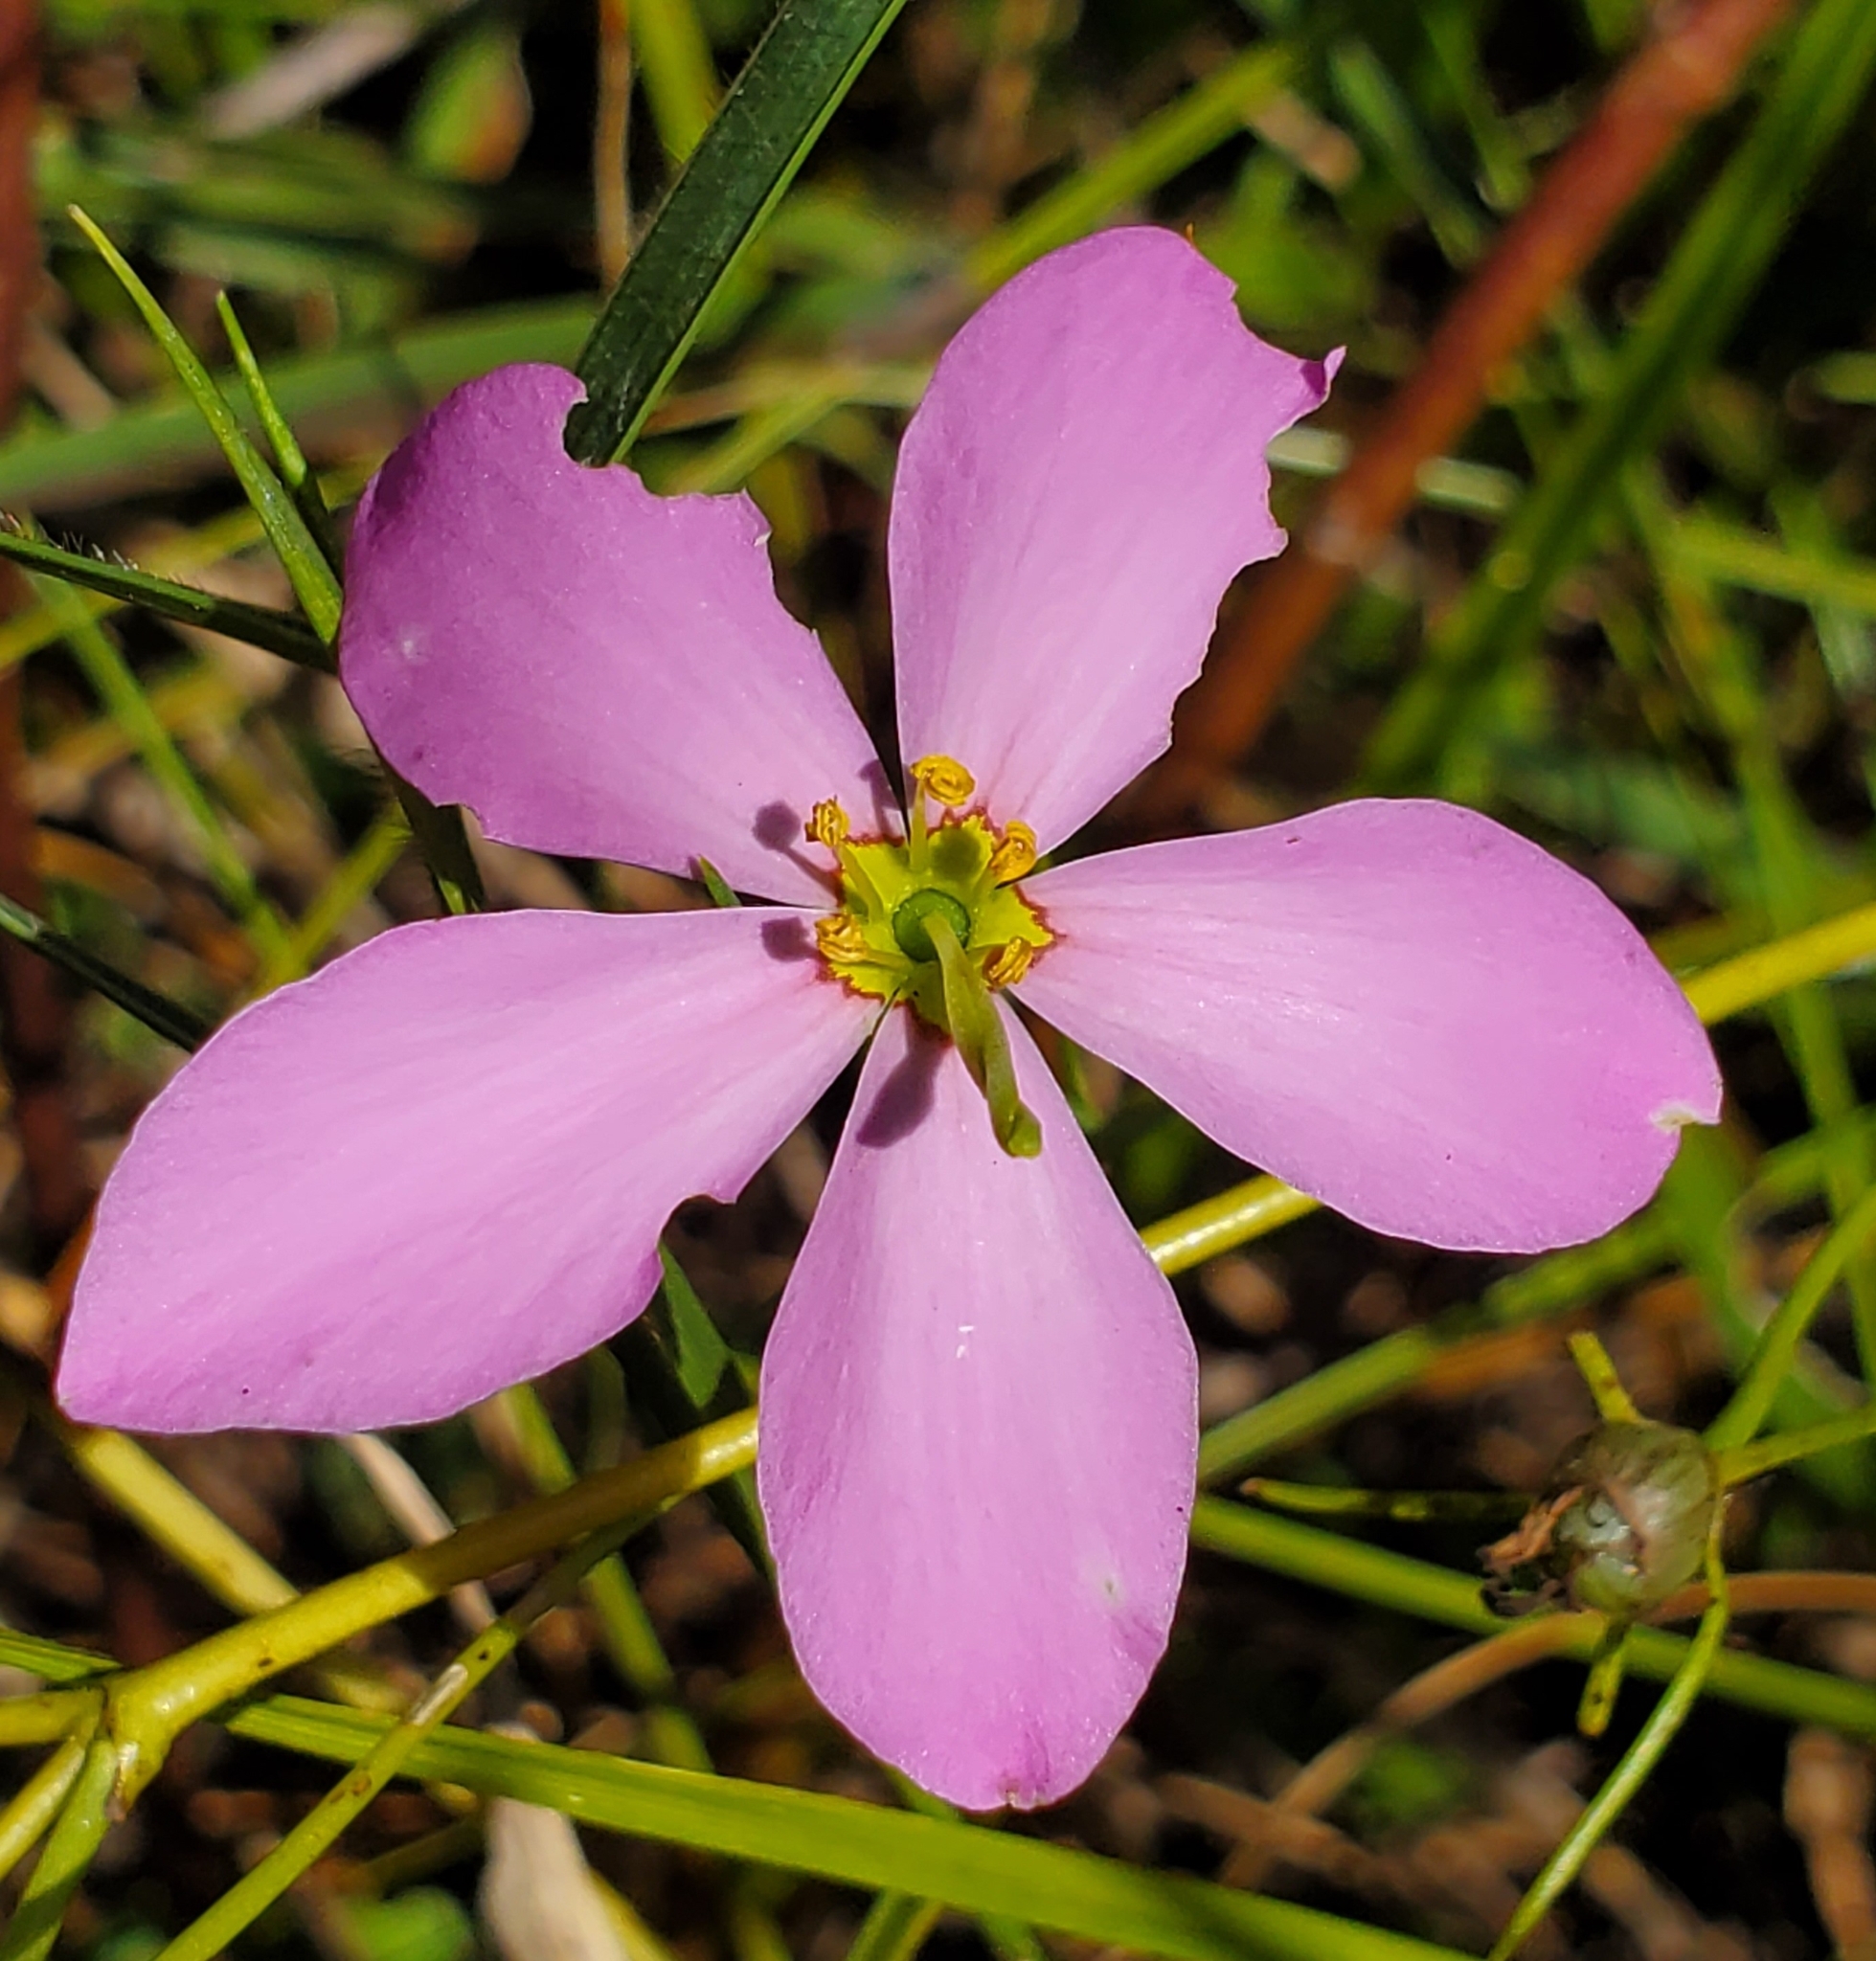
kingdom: Plantae
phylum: Tracheophyta
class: Magnoliopsida
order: Gentianales
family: Gentianaceae
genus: Sabatia
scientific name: Sabatia grandiflora
